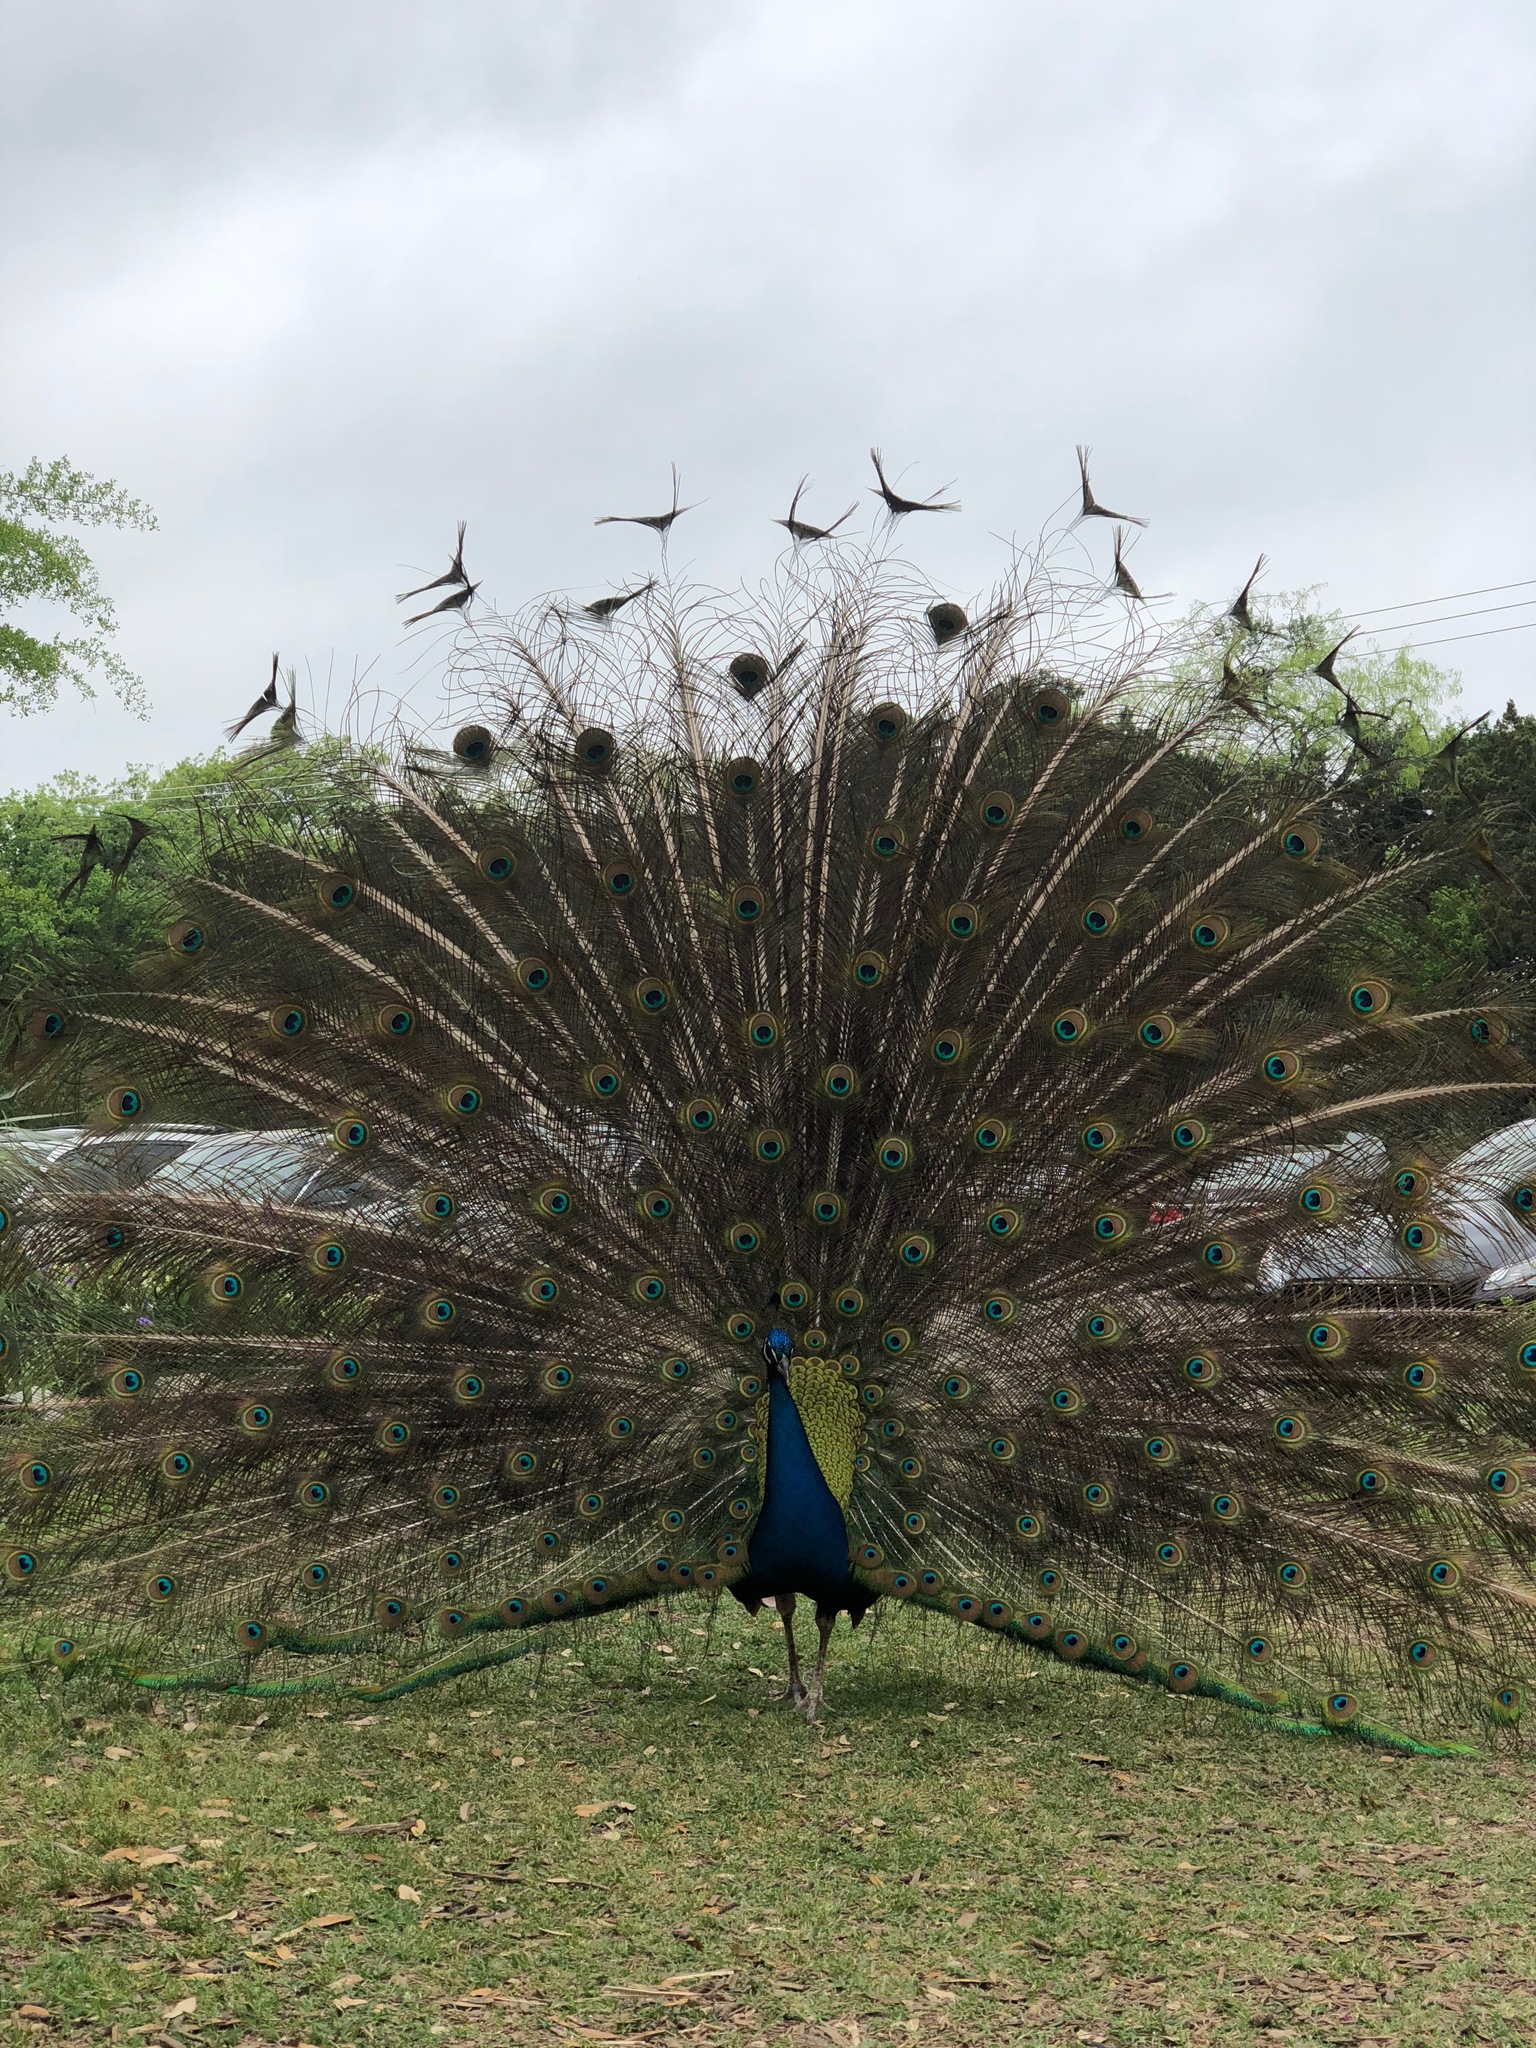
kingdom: Animalia
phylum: Chordata
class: Aves
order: Galliformes
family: Phasianidae
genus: Pavo
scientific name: Pavo cristatus
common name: Indian peafowl
